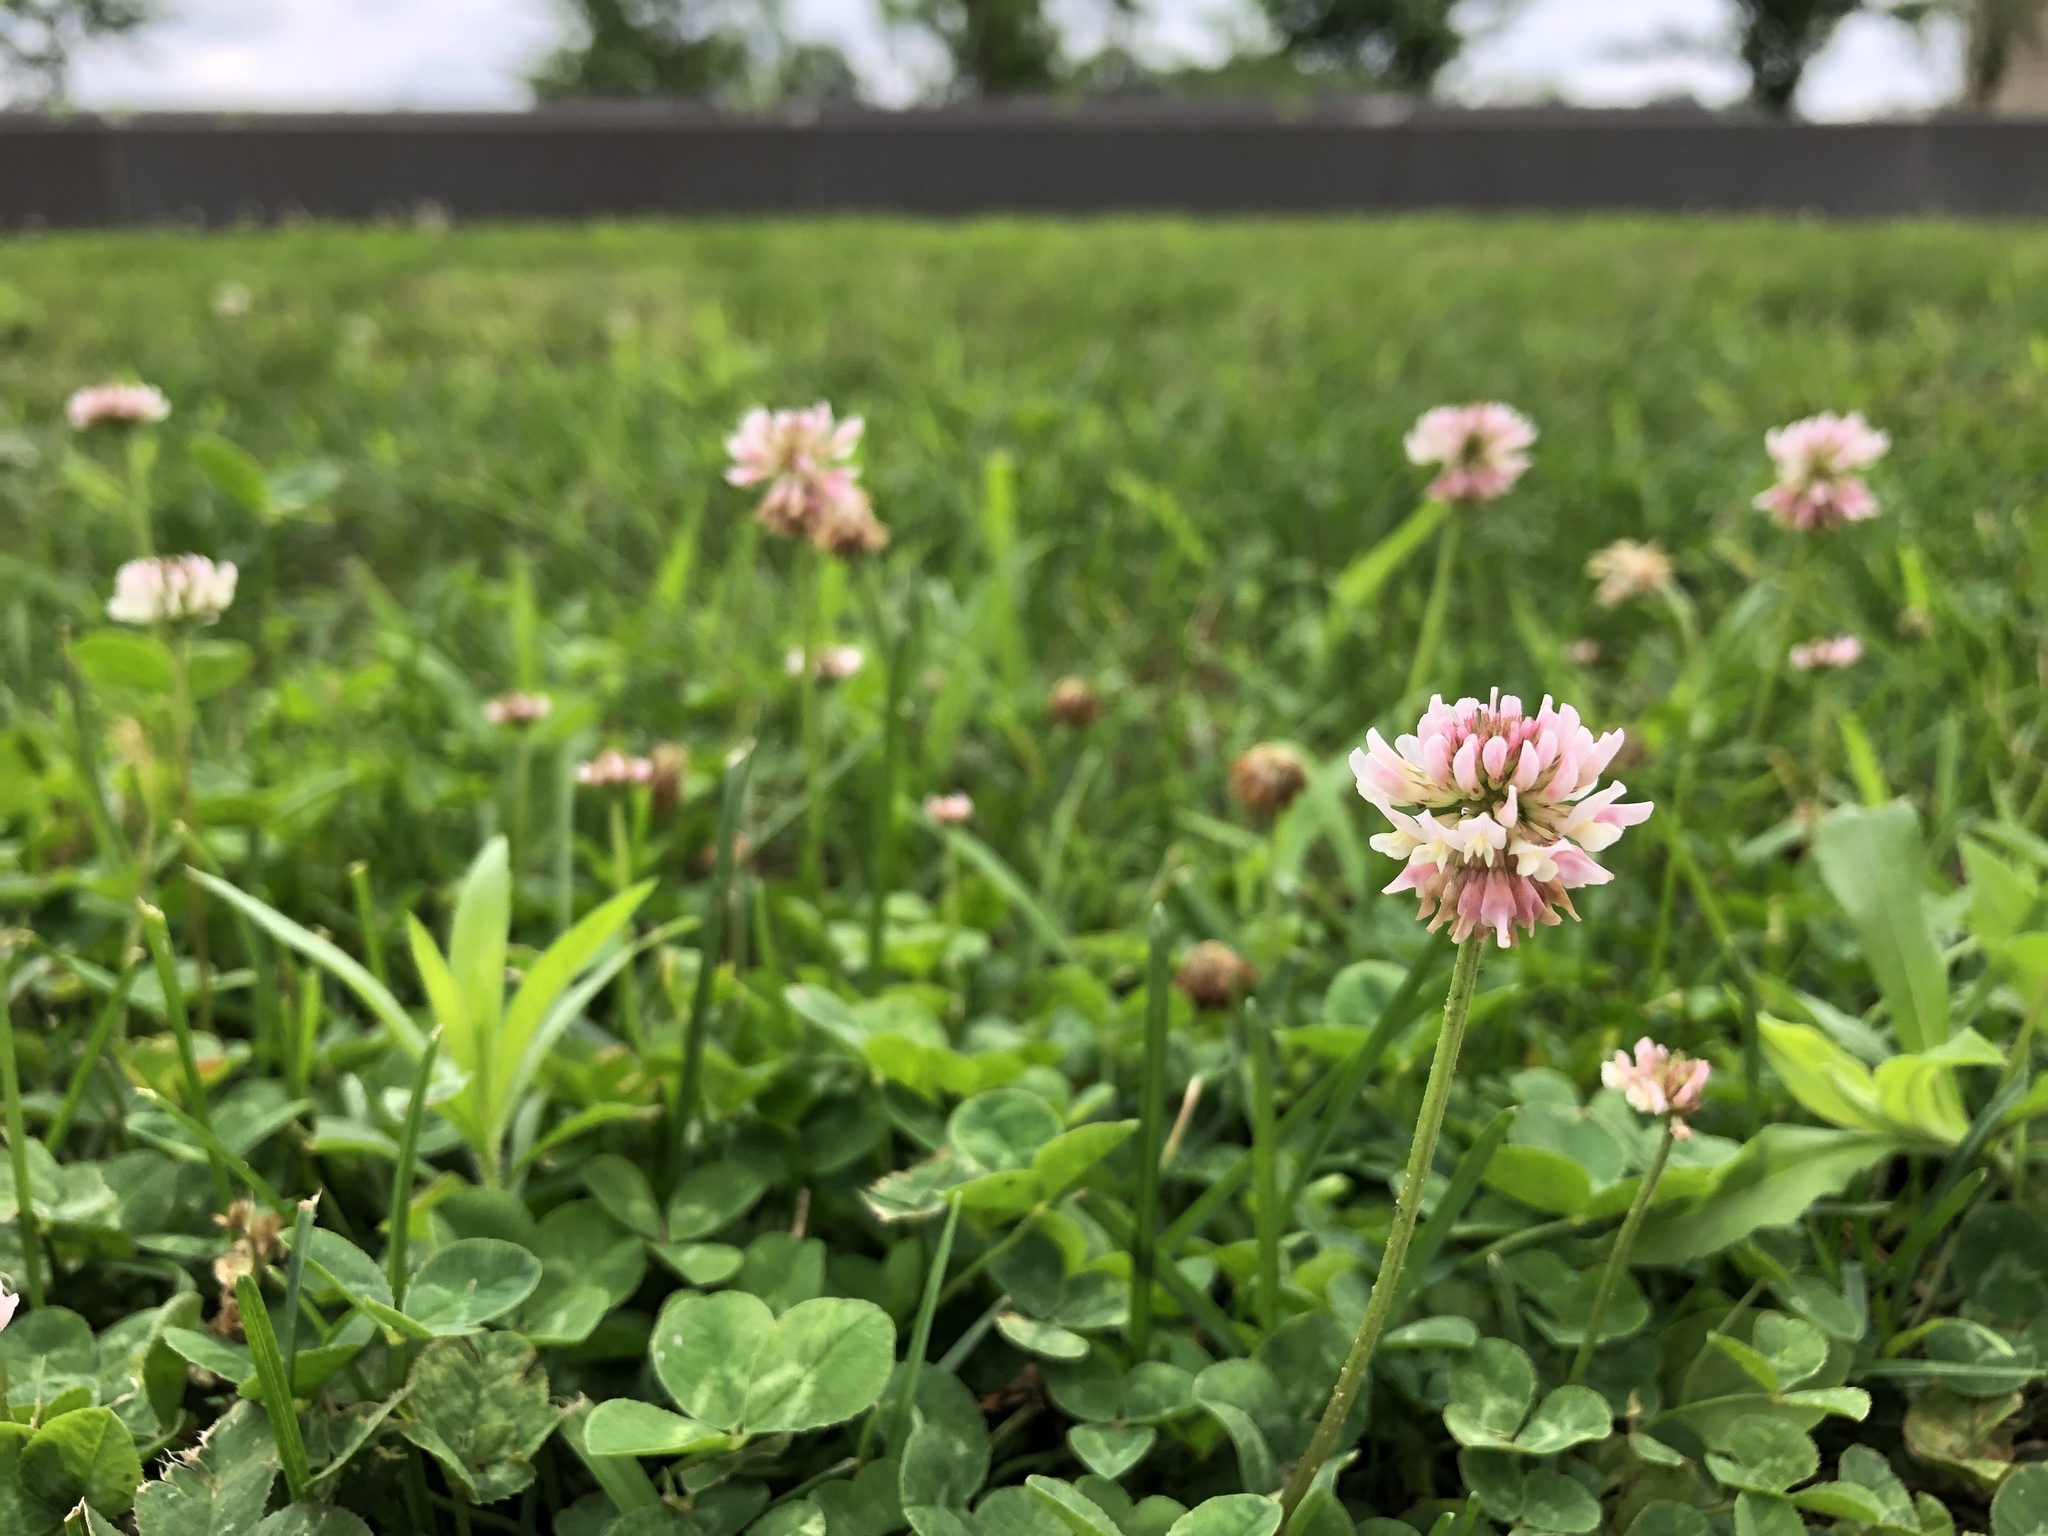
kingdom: Plantae
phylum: Tracheophyta
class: Magnoliopsida
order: Fabales
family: Fabaceae
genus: Trifolium
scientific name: Trifolium repens
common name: White clover
